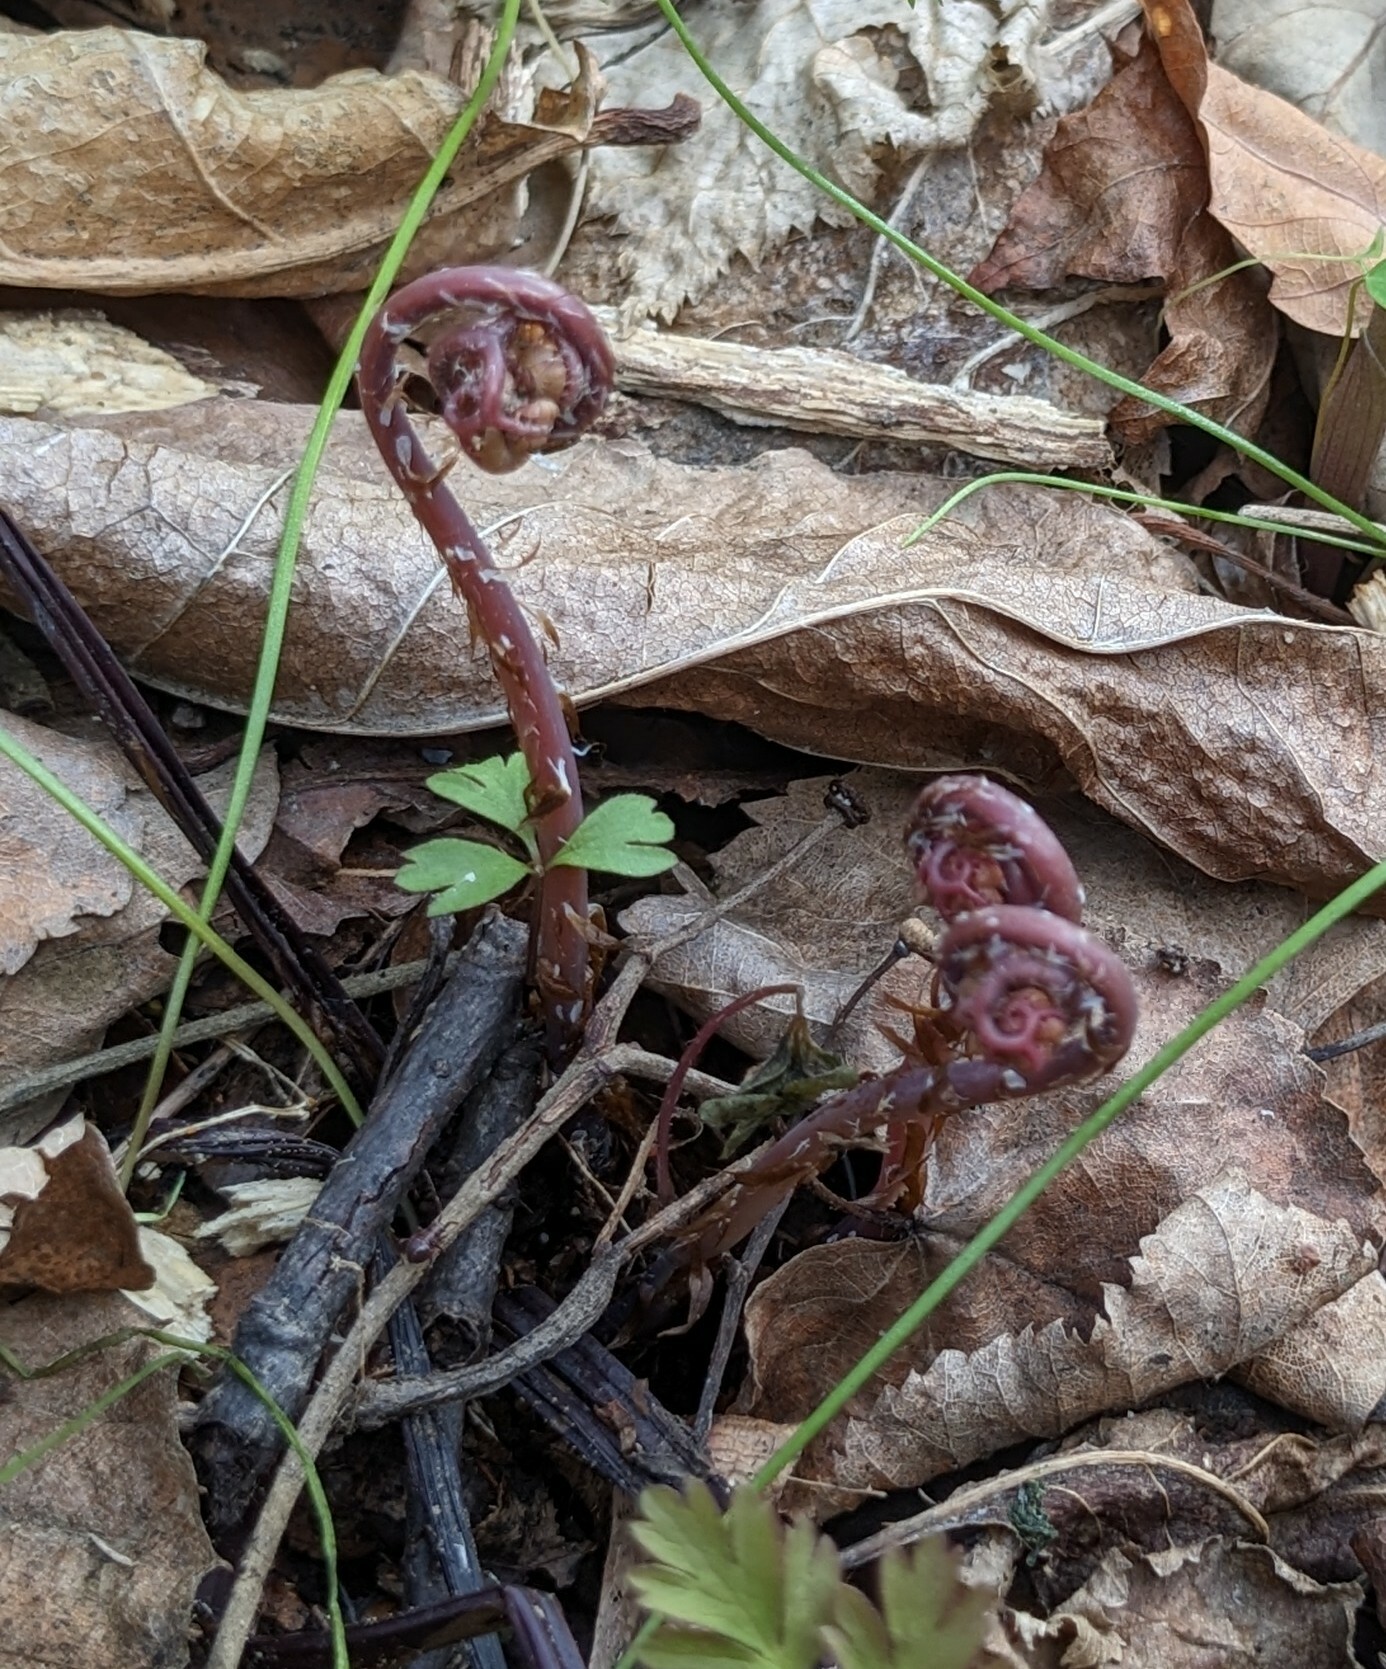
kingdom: Plantae
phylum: Tracheophyta
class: Polypodiopsida
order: Polypodiales
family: Pteridaceae
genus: Adiantum
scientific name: Adiantum pedatum
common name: Five-finger fern
